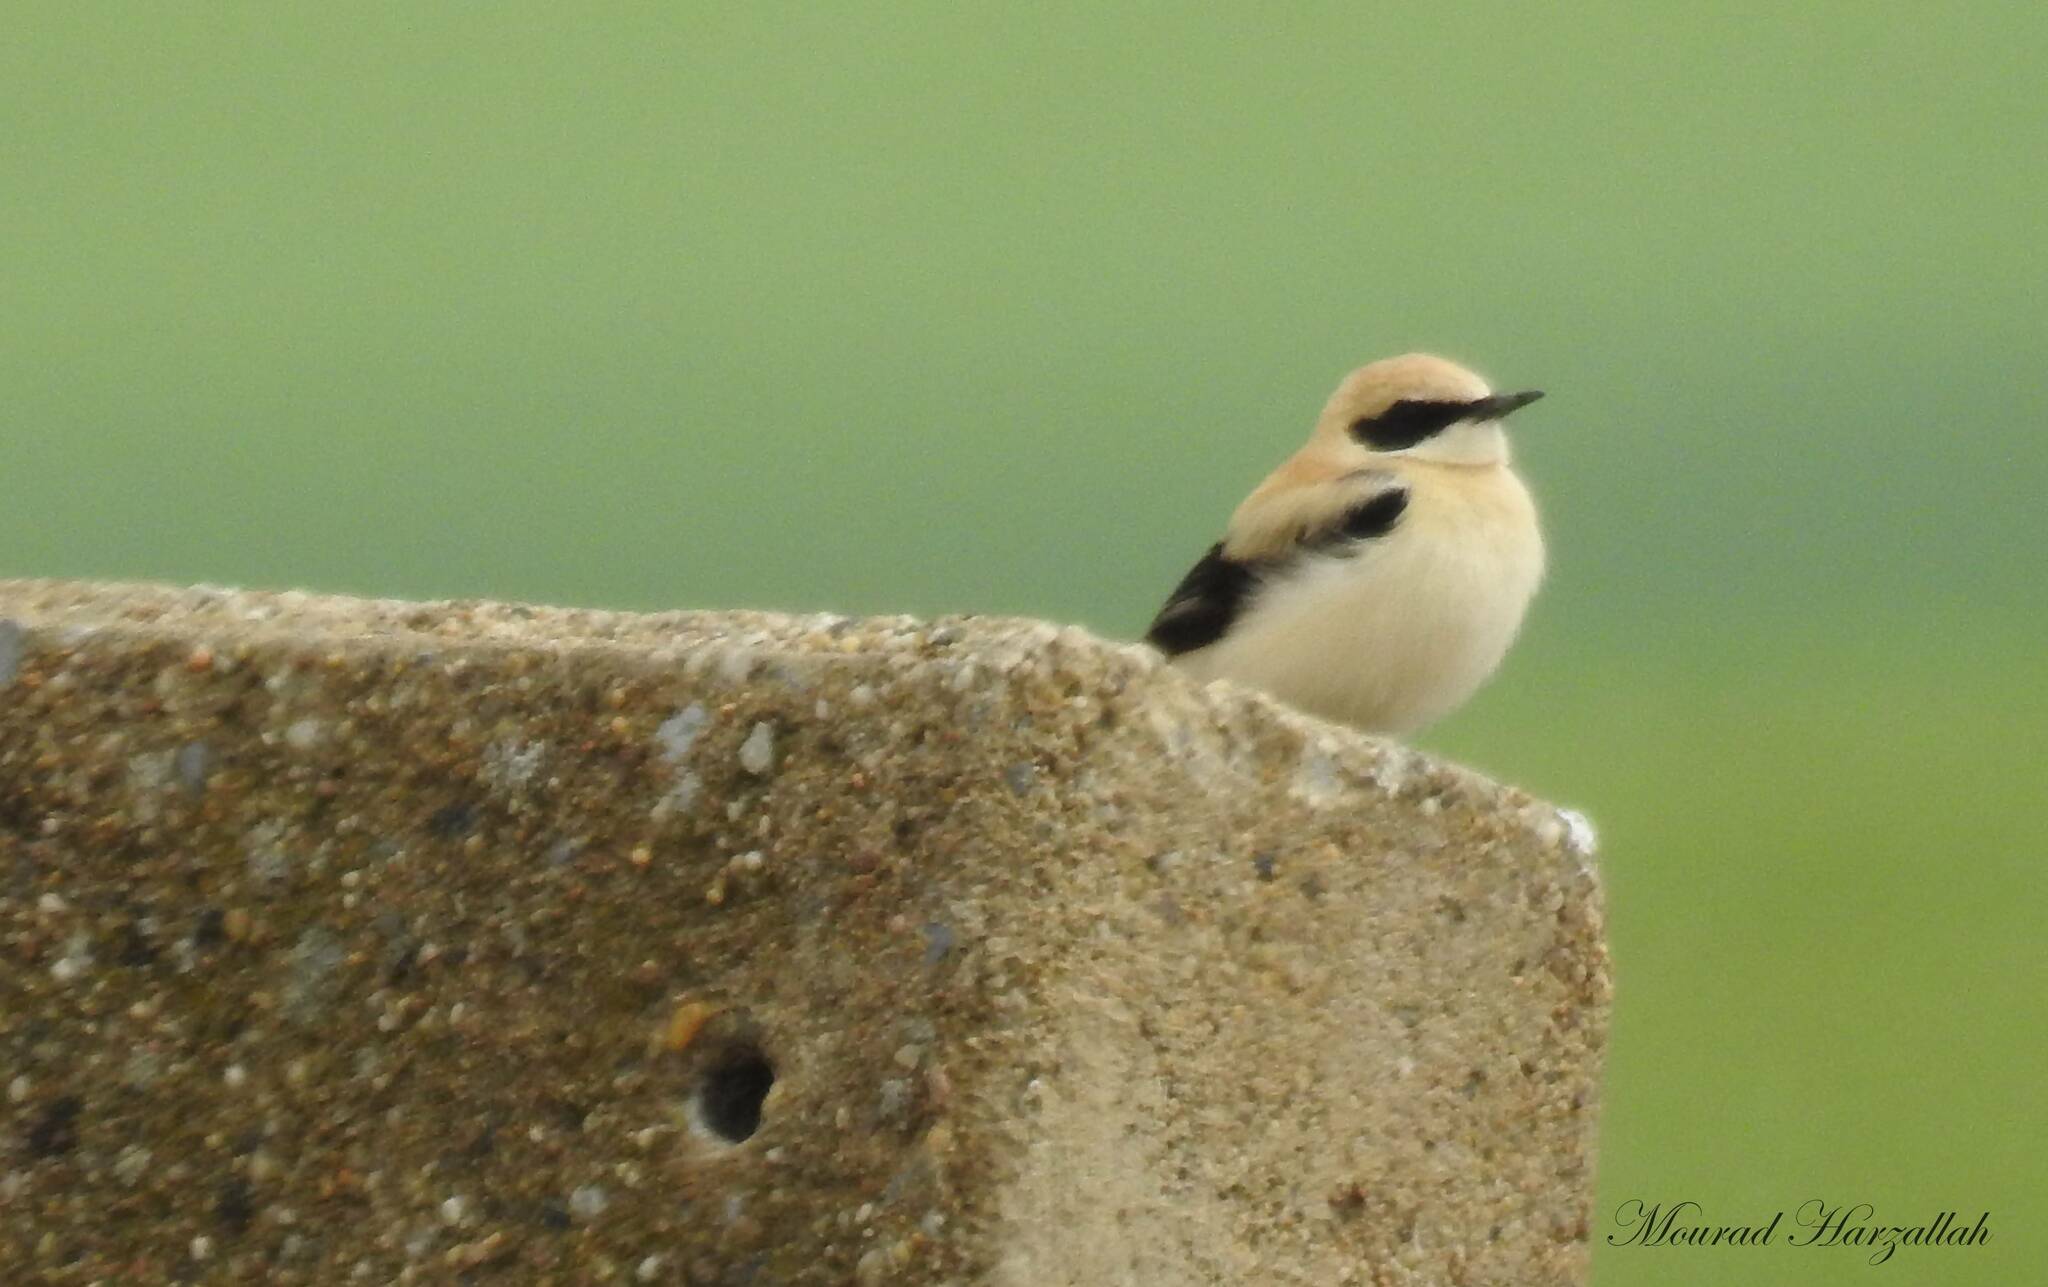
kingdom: Animalia
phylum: Chordata
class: Aves
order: Passeriformes
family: Muscicapidae
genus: Oenanthe
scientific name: Oenanthe hispanica
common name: Black-eared wheatear
